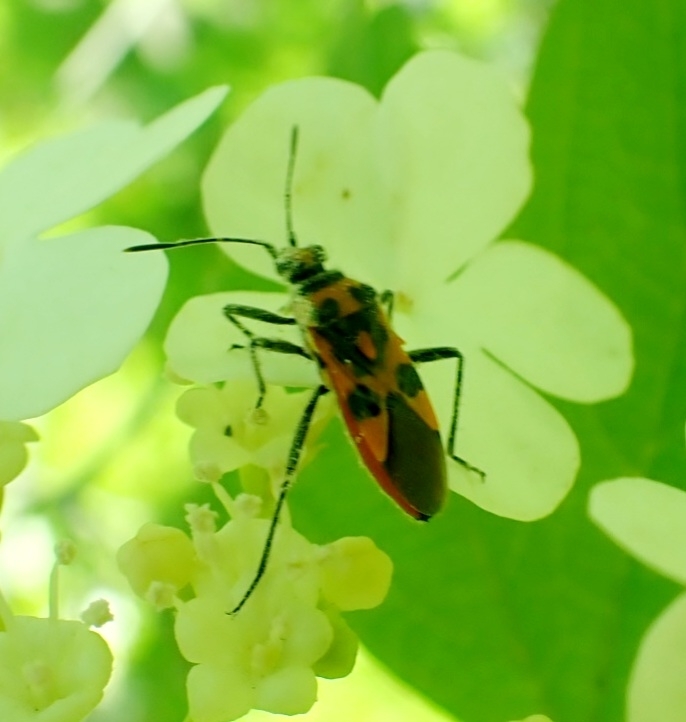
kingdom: Animalia
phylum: Arthropoda
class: Insecta
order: Hemiptera
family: Rhopalidae
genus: Corizus
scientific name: Corizus hyoscyami
